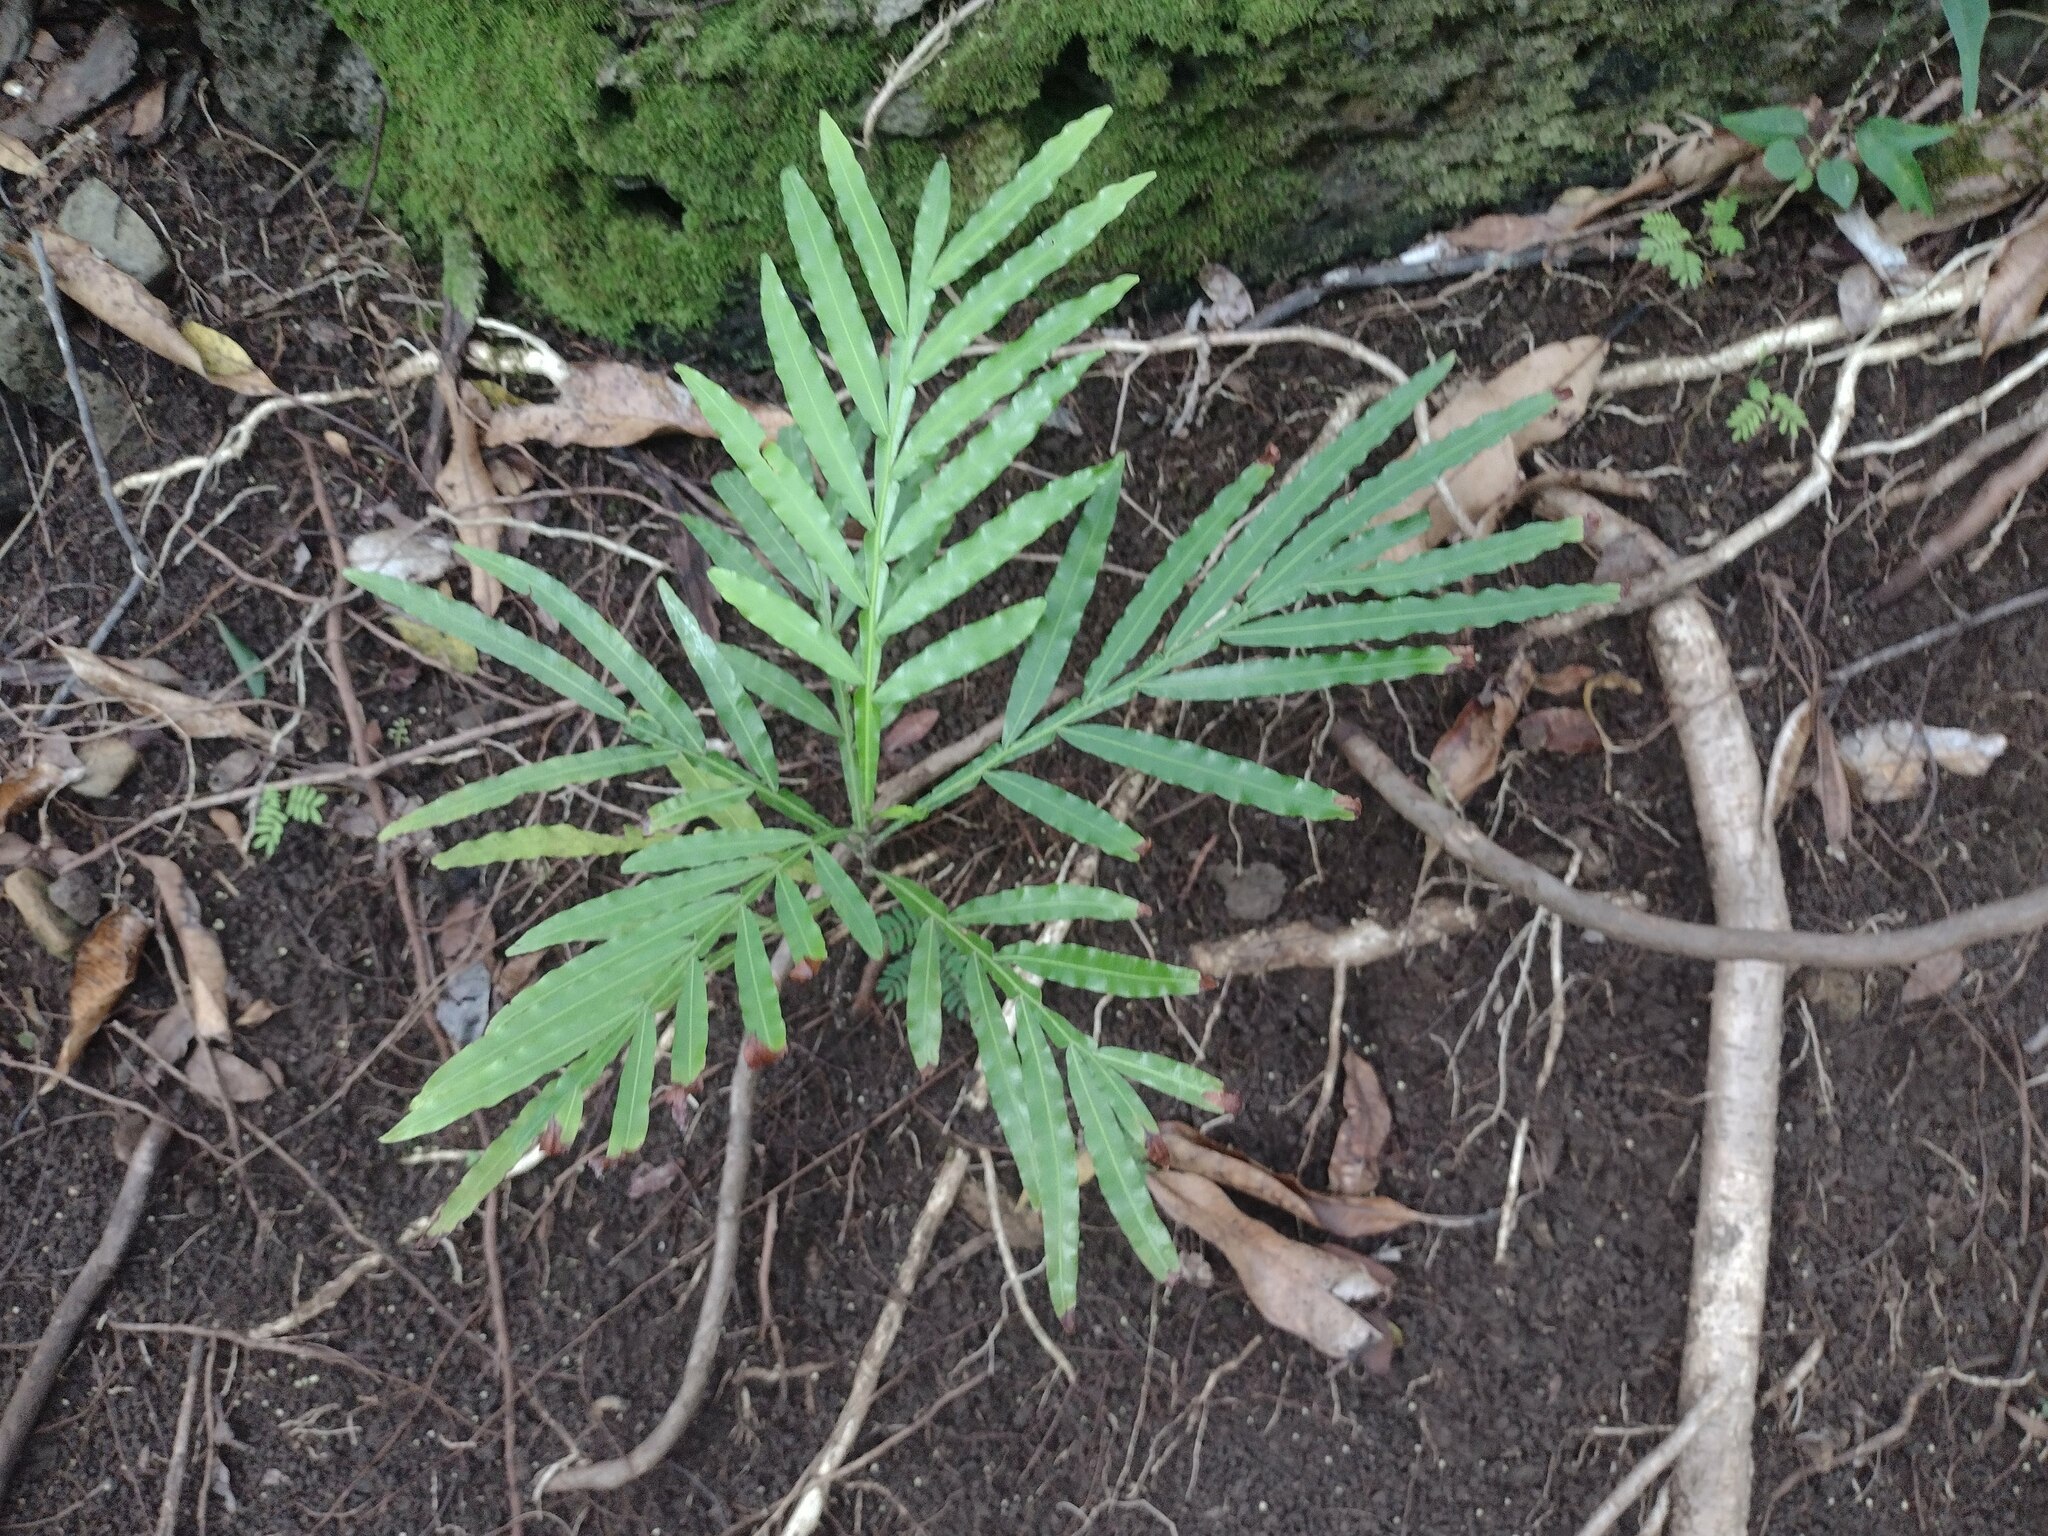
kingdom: Plantae
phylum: Tracheophyta
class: Magnoliopsida
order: Sapindales
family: Sapindaceae
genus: Filicium
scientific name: Filicium decipiens
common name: Ferntree
